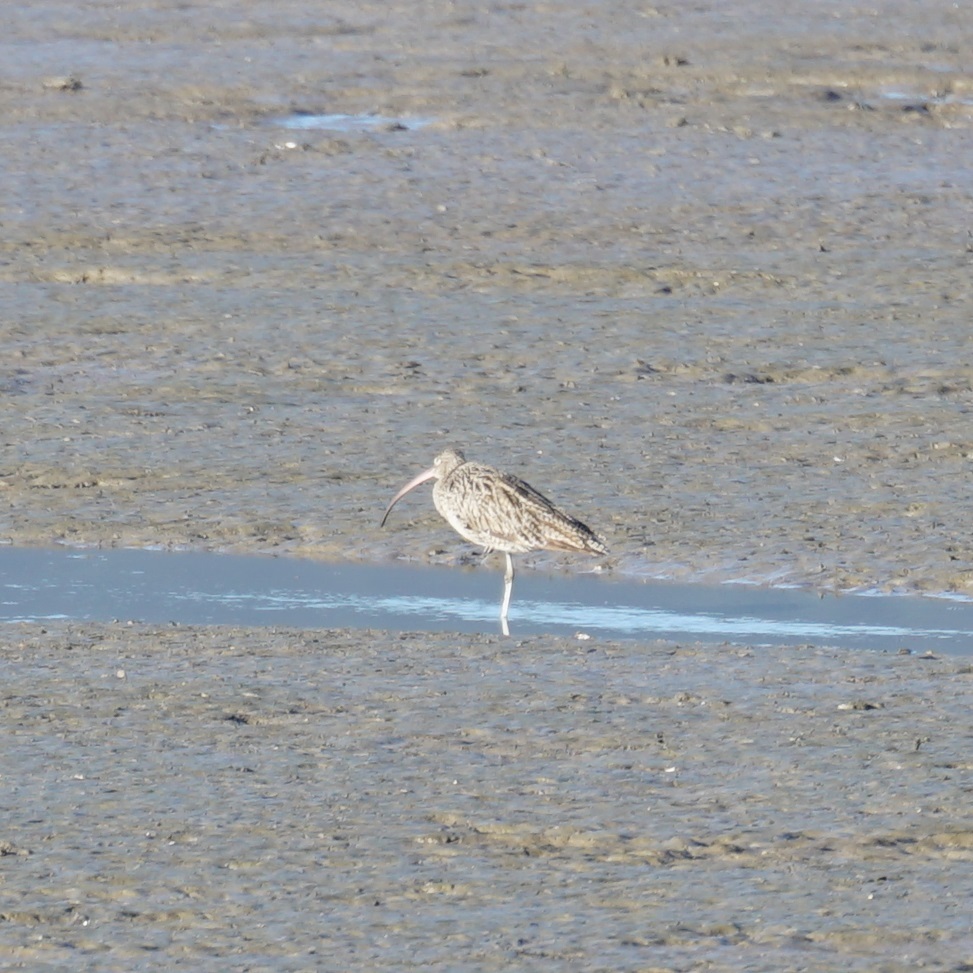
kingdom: Animalia
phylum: Chordata
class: Aves
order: Charadriiformes
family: Scolopacidae
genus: Numenius
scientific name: Numenius madagascariensis
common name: Far eastern curlew
